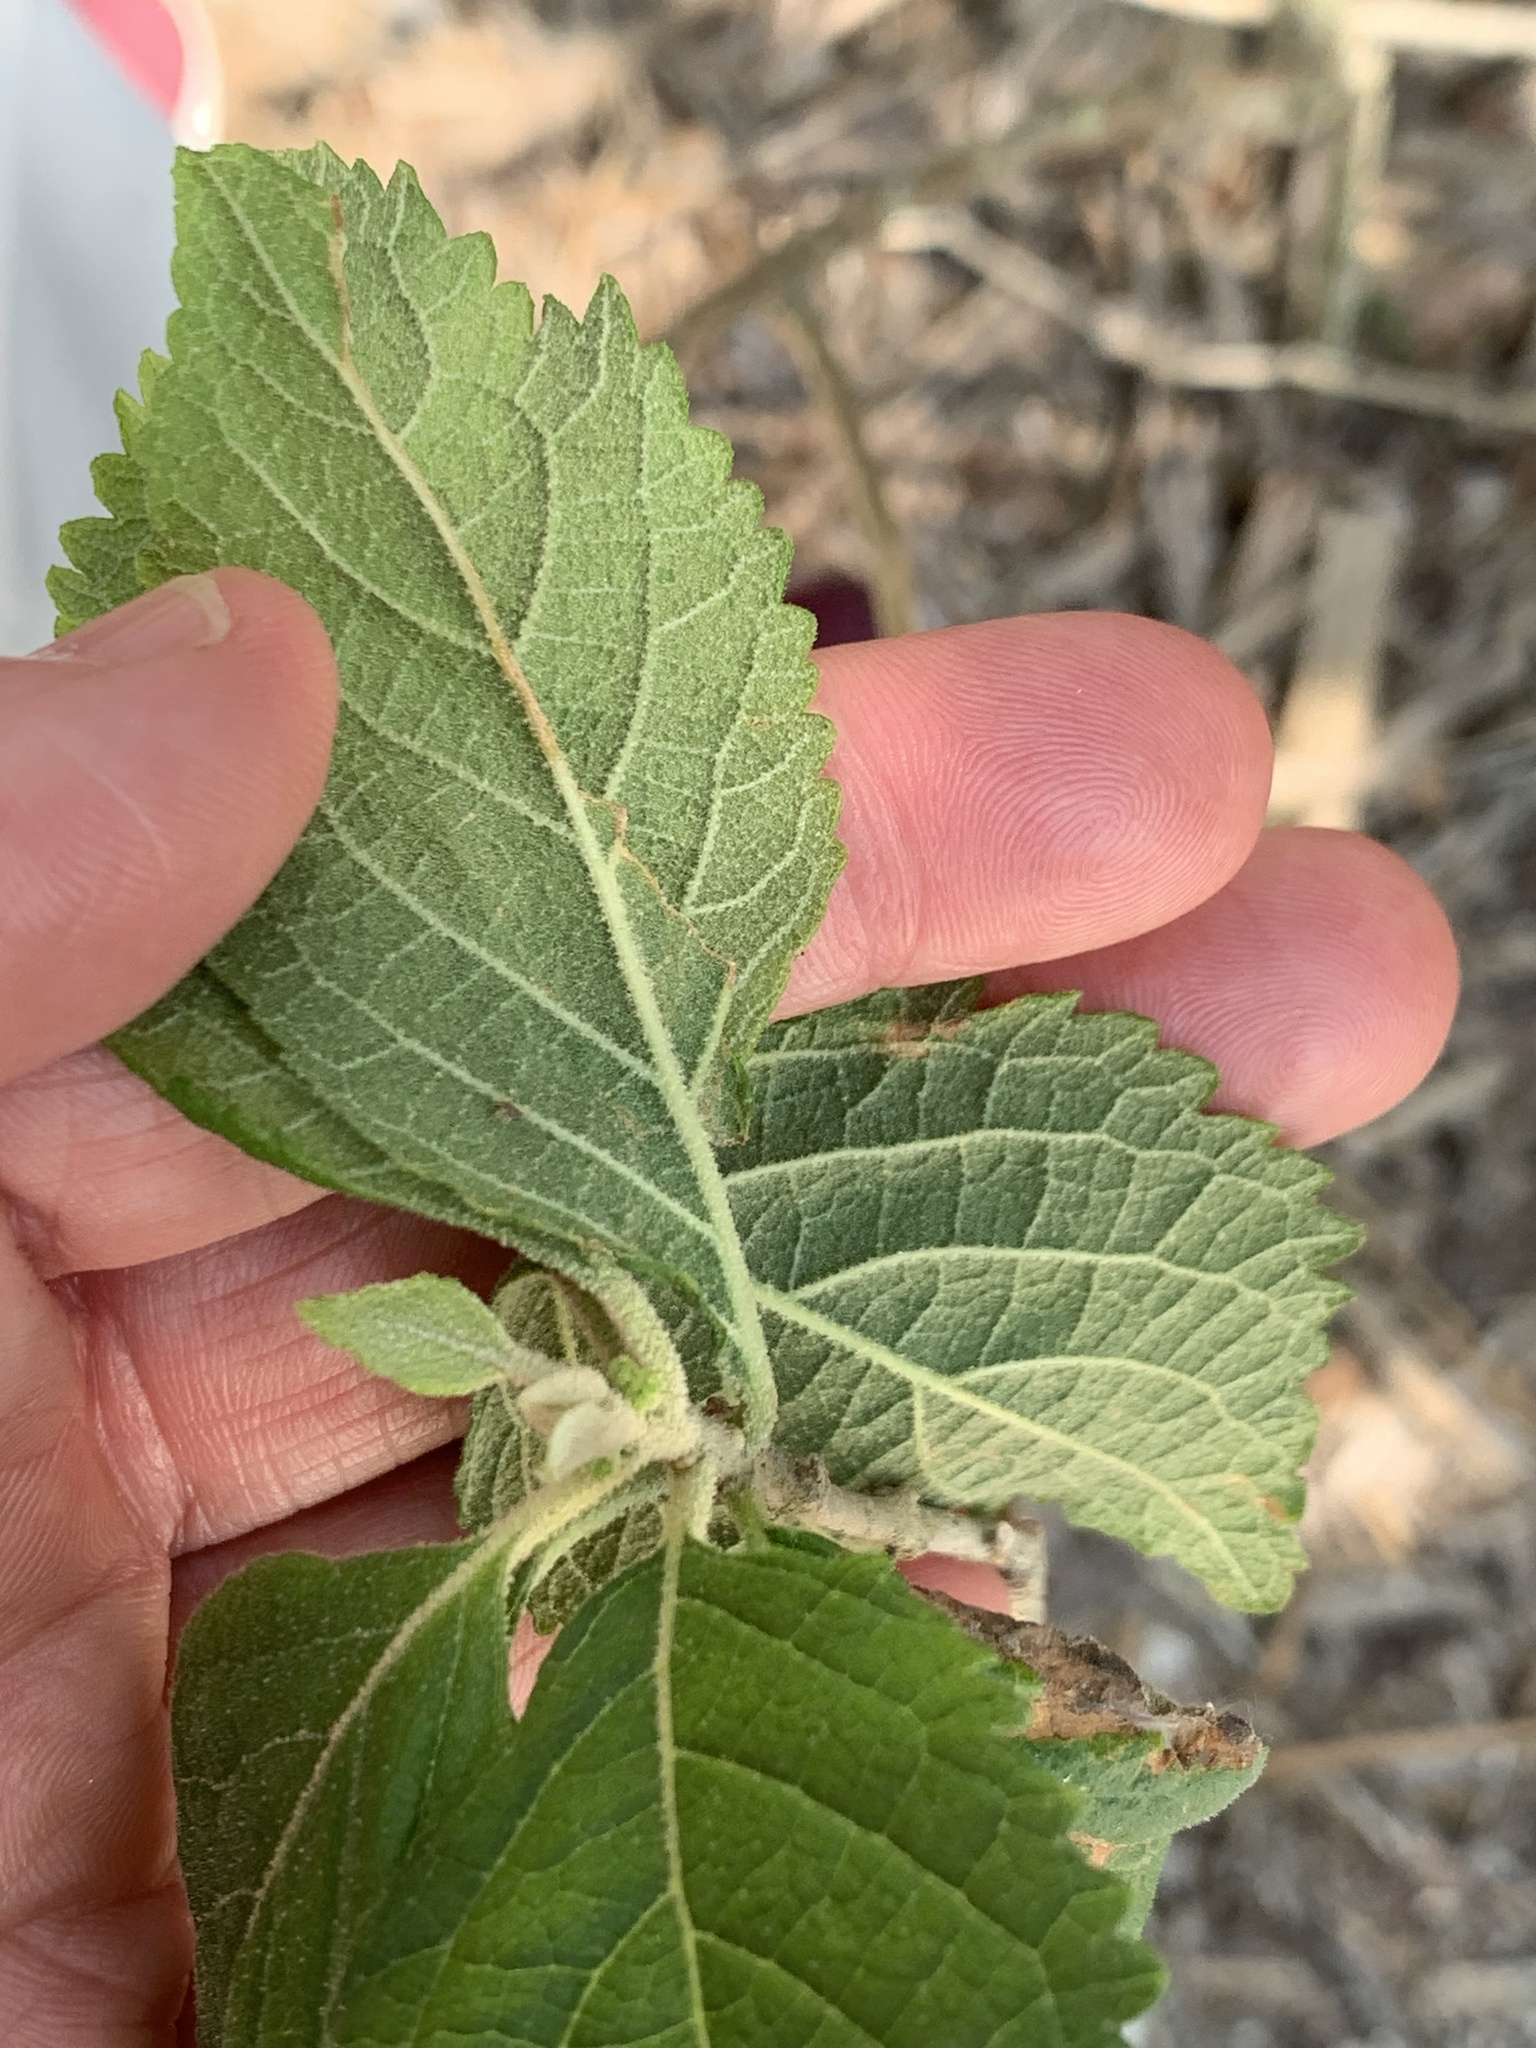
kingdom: Plantae
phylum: Tracheophyta
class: Magnoliopsida
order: Lamiales
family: Lamiaceae
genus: Callicarpa
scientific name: Callicarpa americana
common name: American beautyberry
